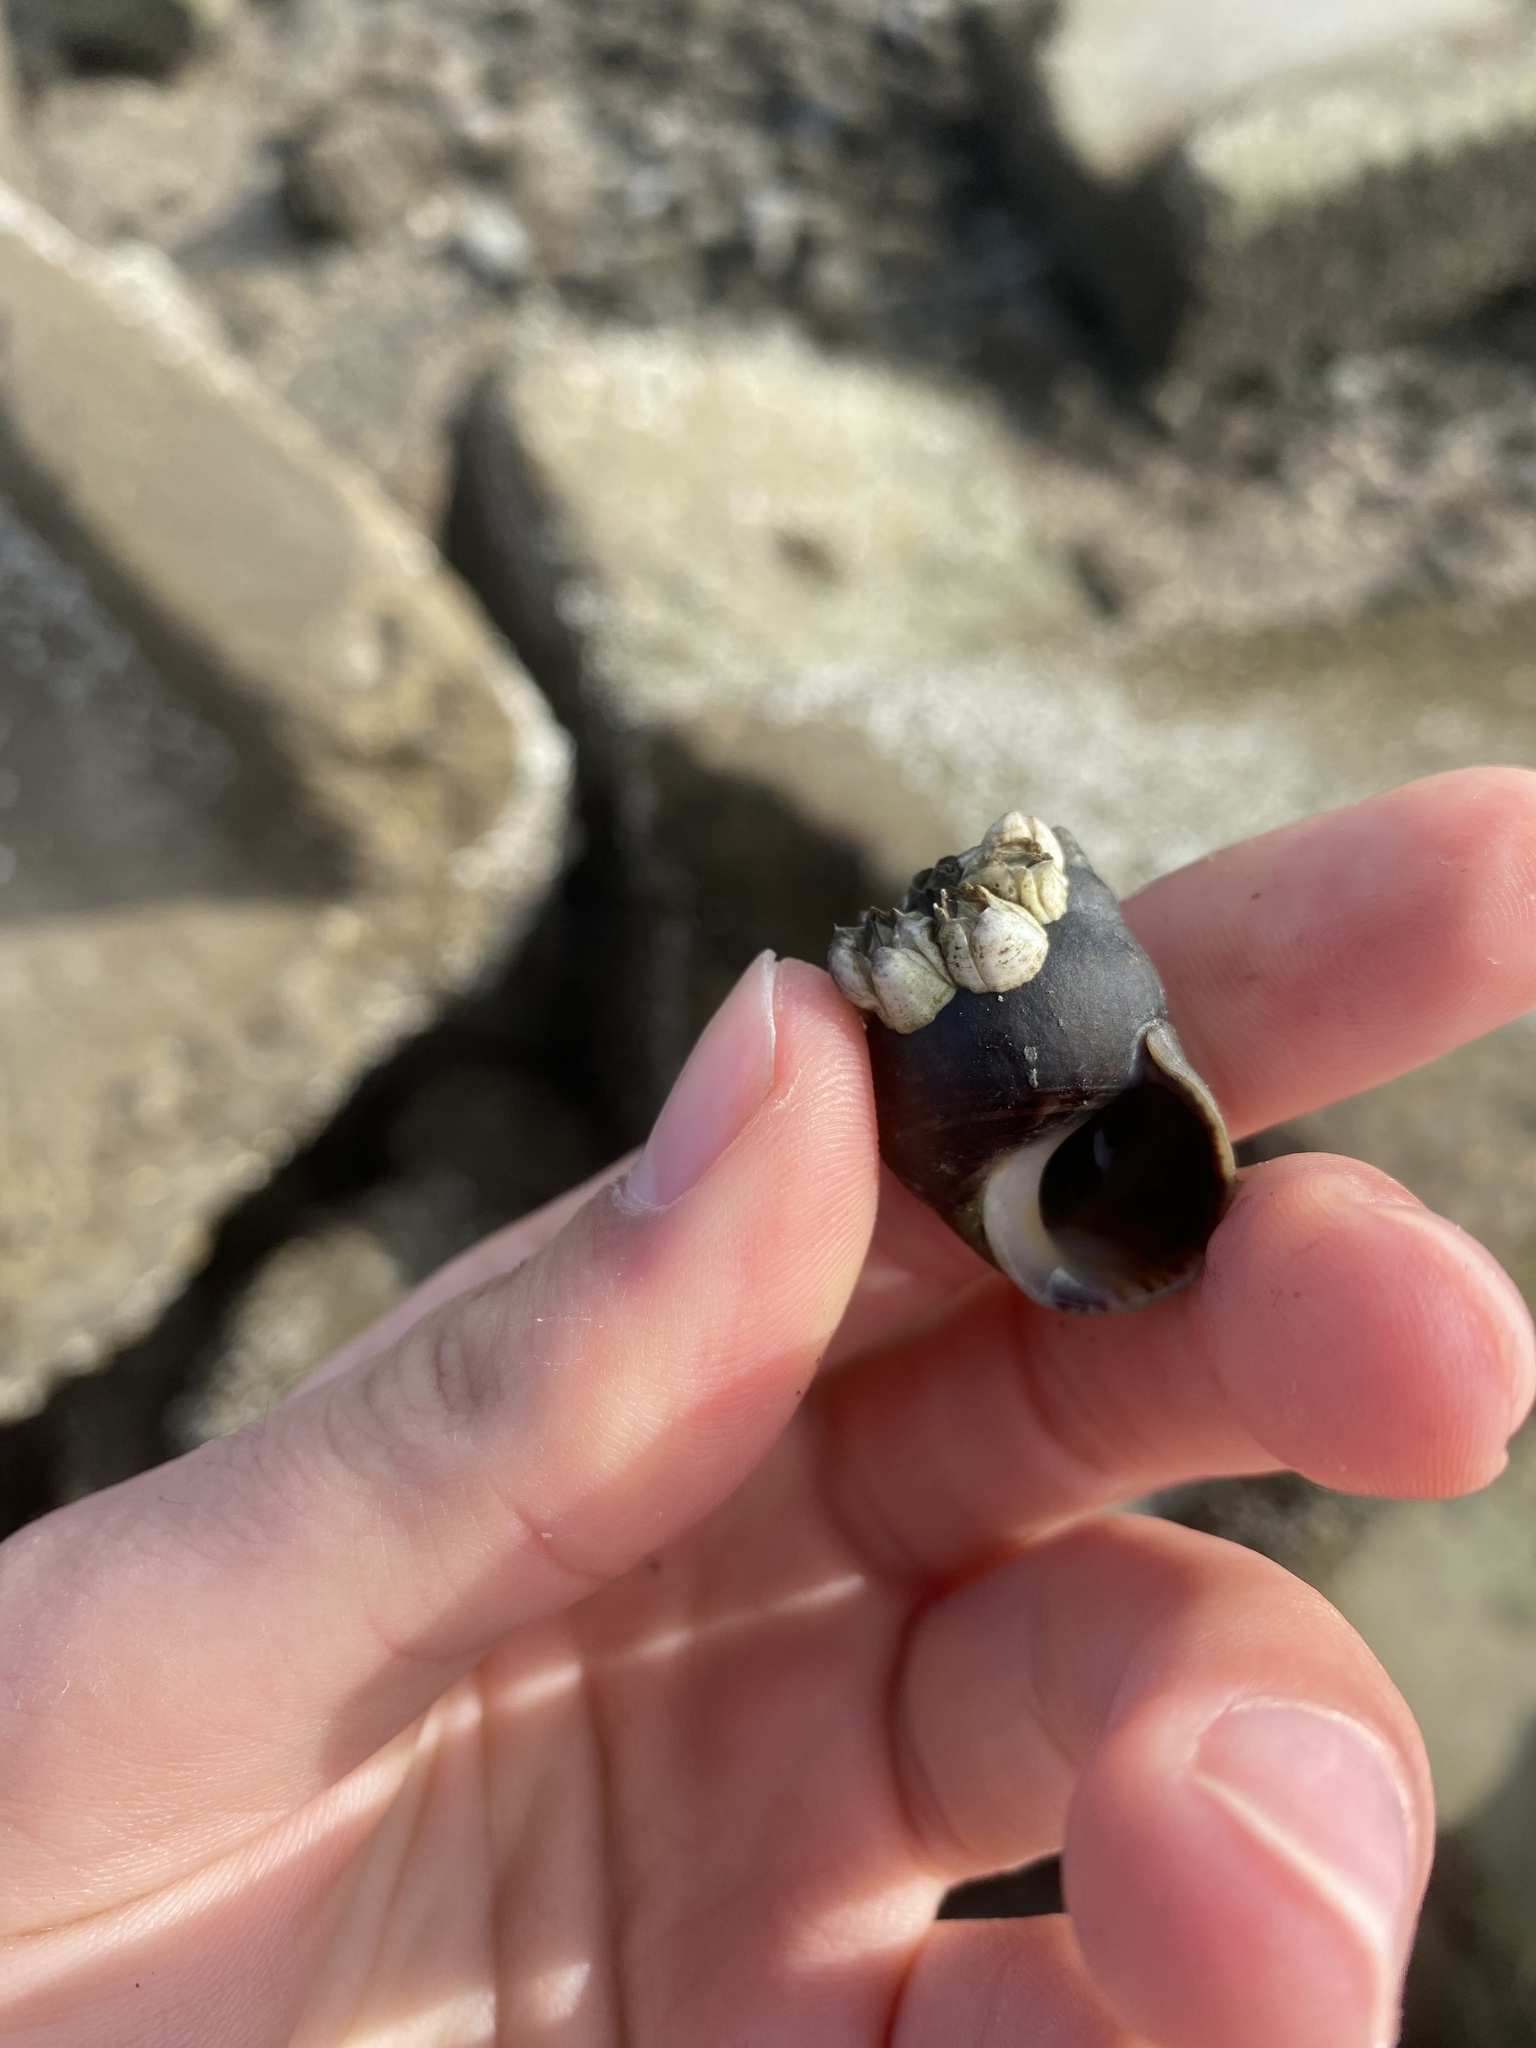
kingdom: Animalia
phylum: Mollusca
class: Gastropoda
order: Littorinimorpha
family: Littorinidae
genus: Littorina
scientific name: Littorina littorea
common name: Common periwinkle
